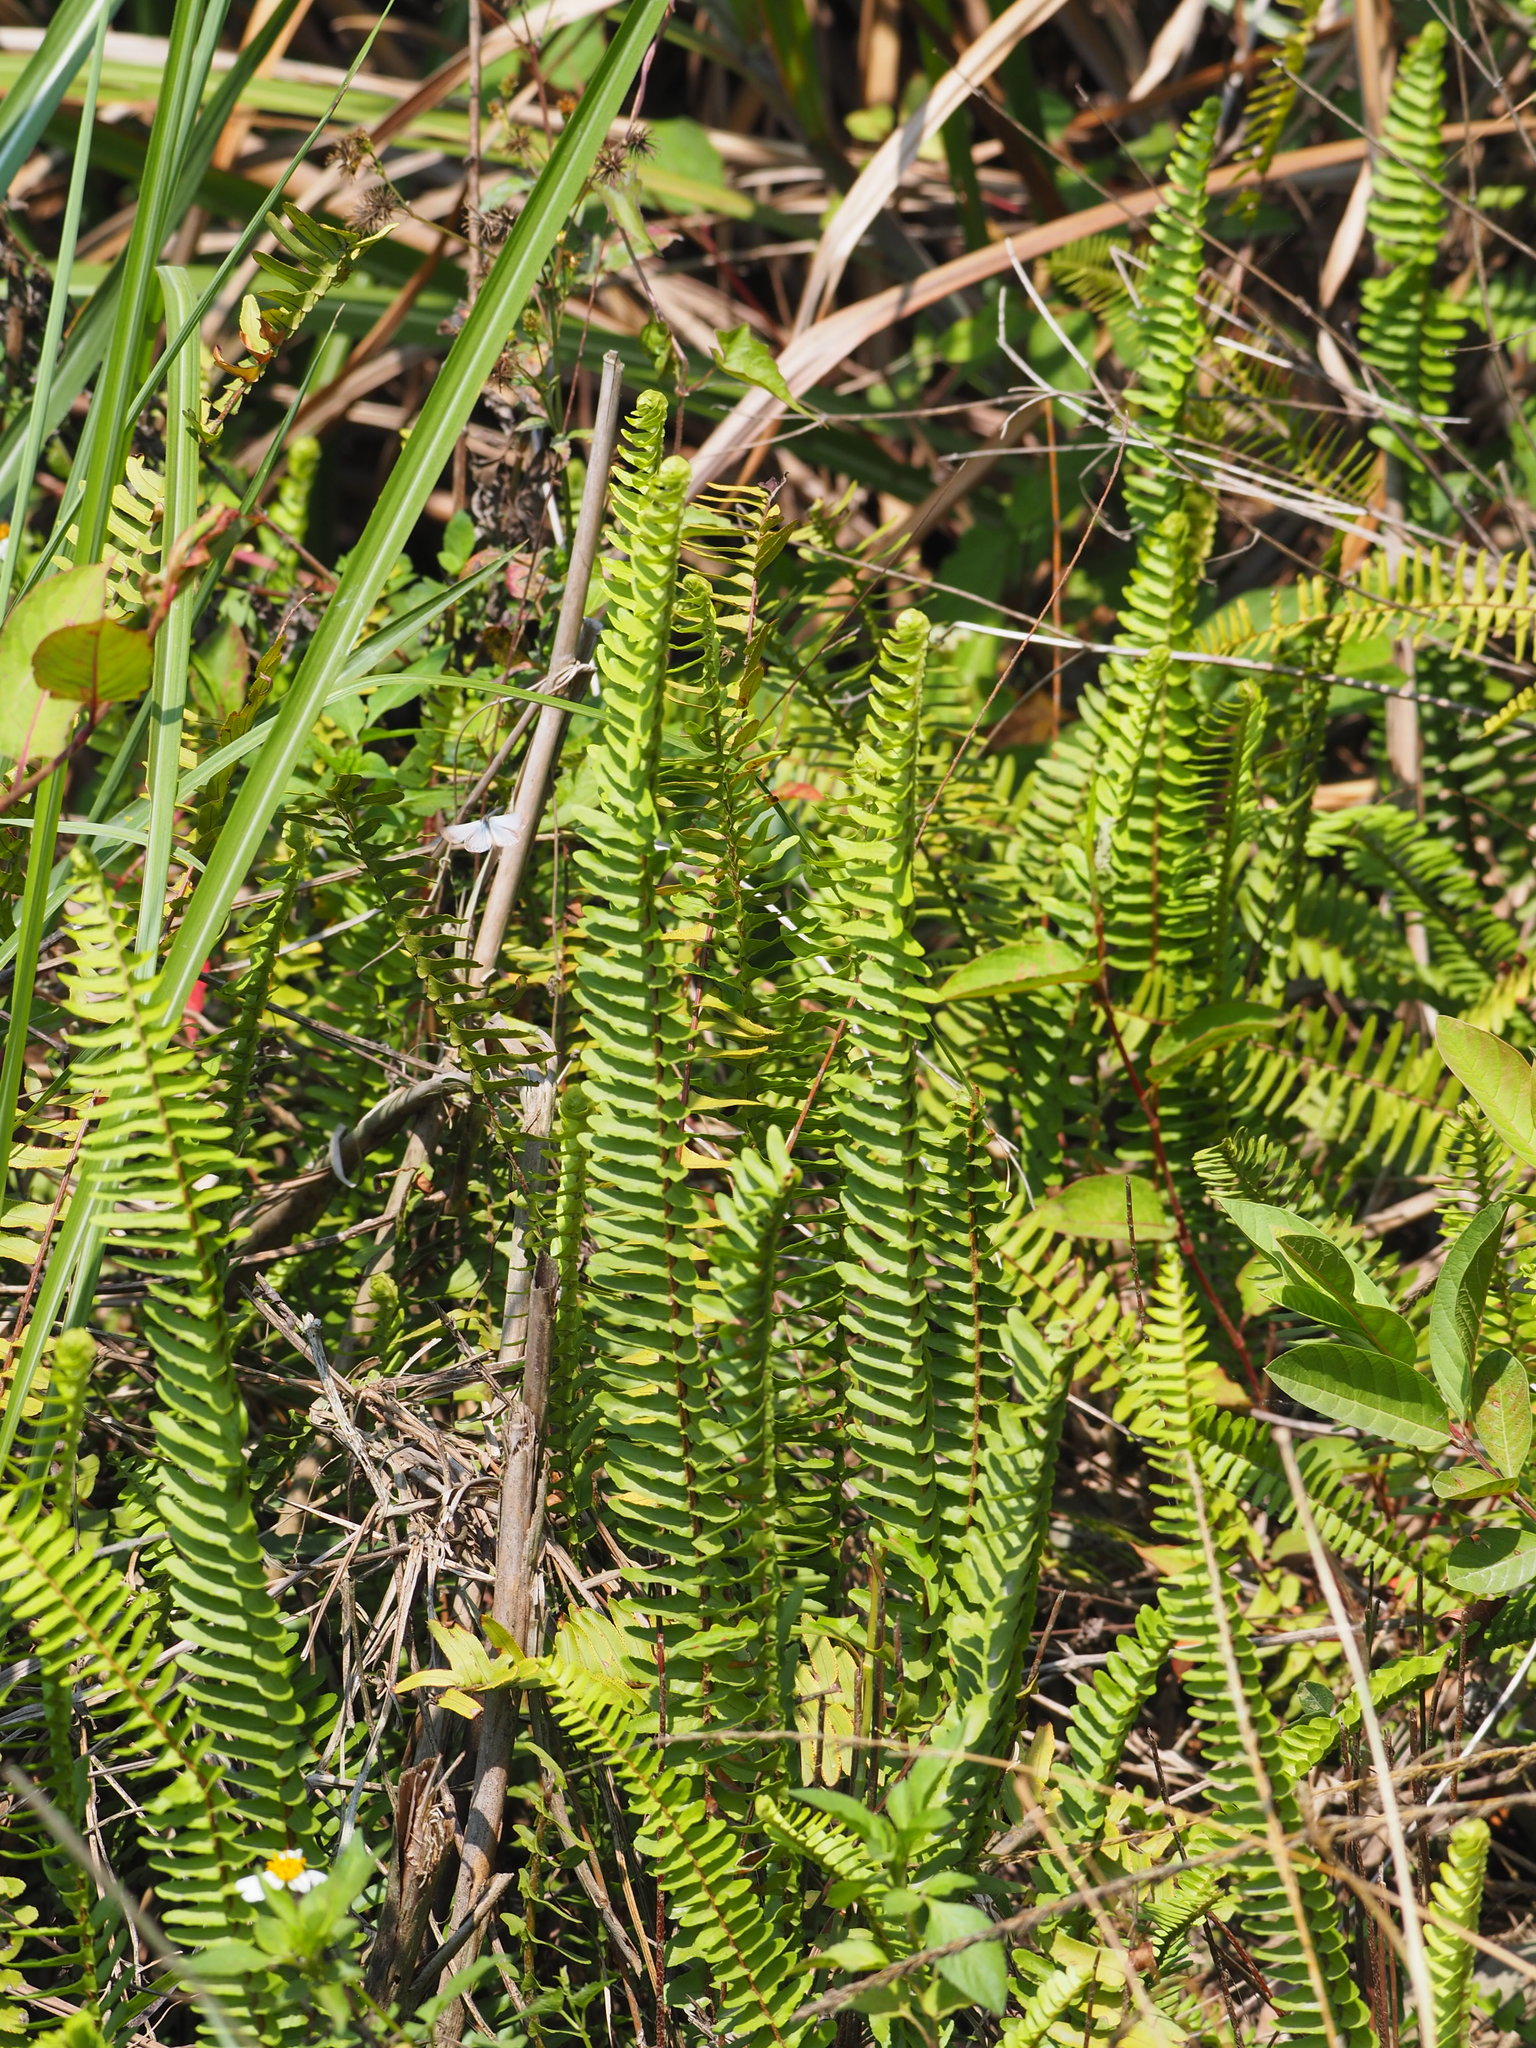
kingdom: Plantae
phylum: Tracheophyta
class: Polypodiopsida
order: Polypodiales
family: Nephrolepidaceae
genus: Nephrolepis
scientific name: Nephrolepis cordifolia
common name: Narrow swordfern
